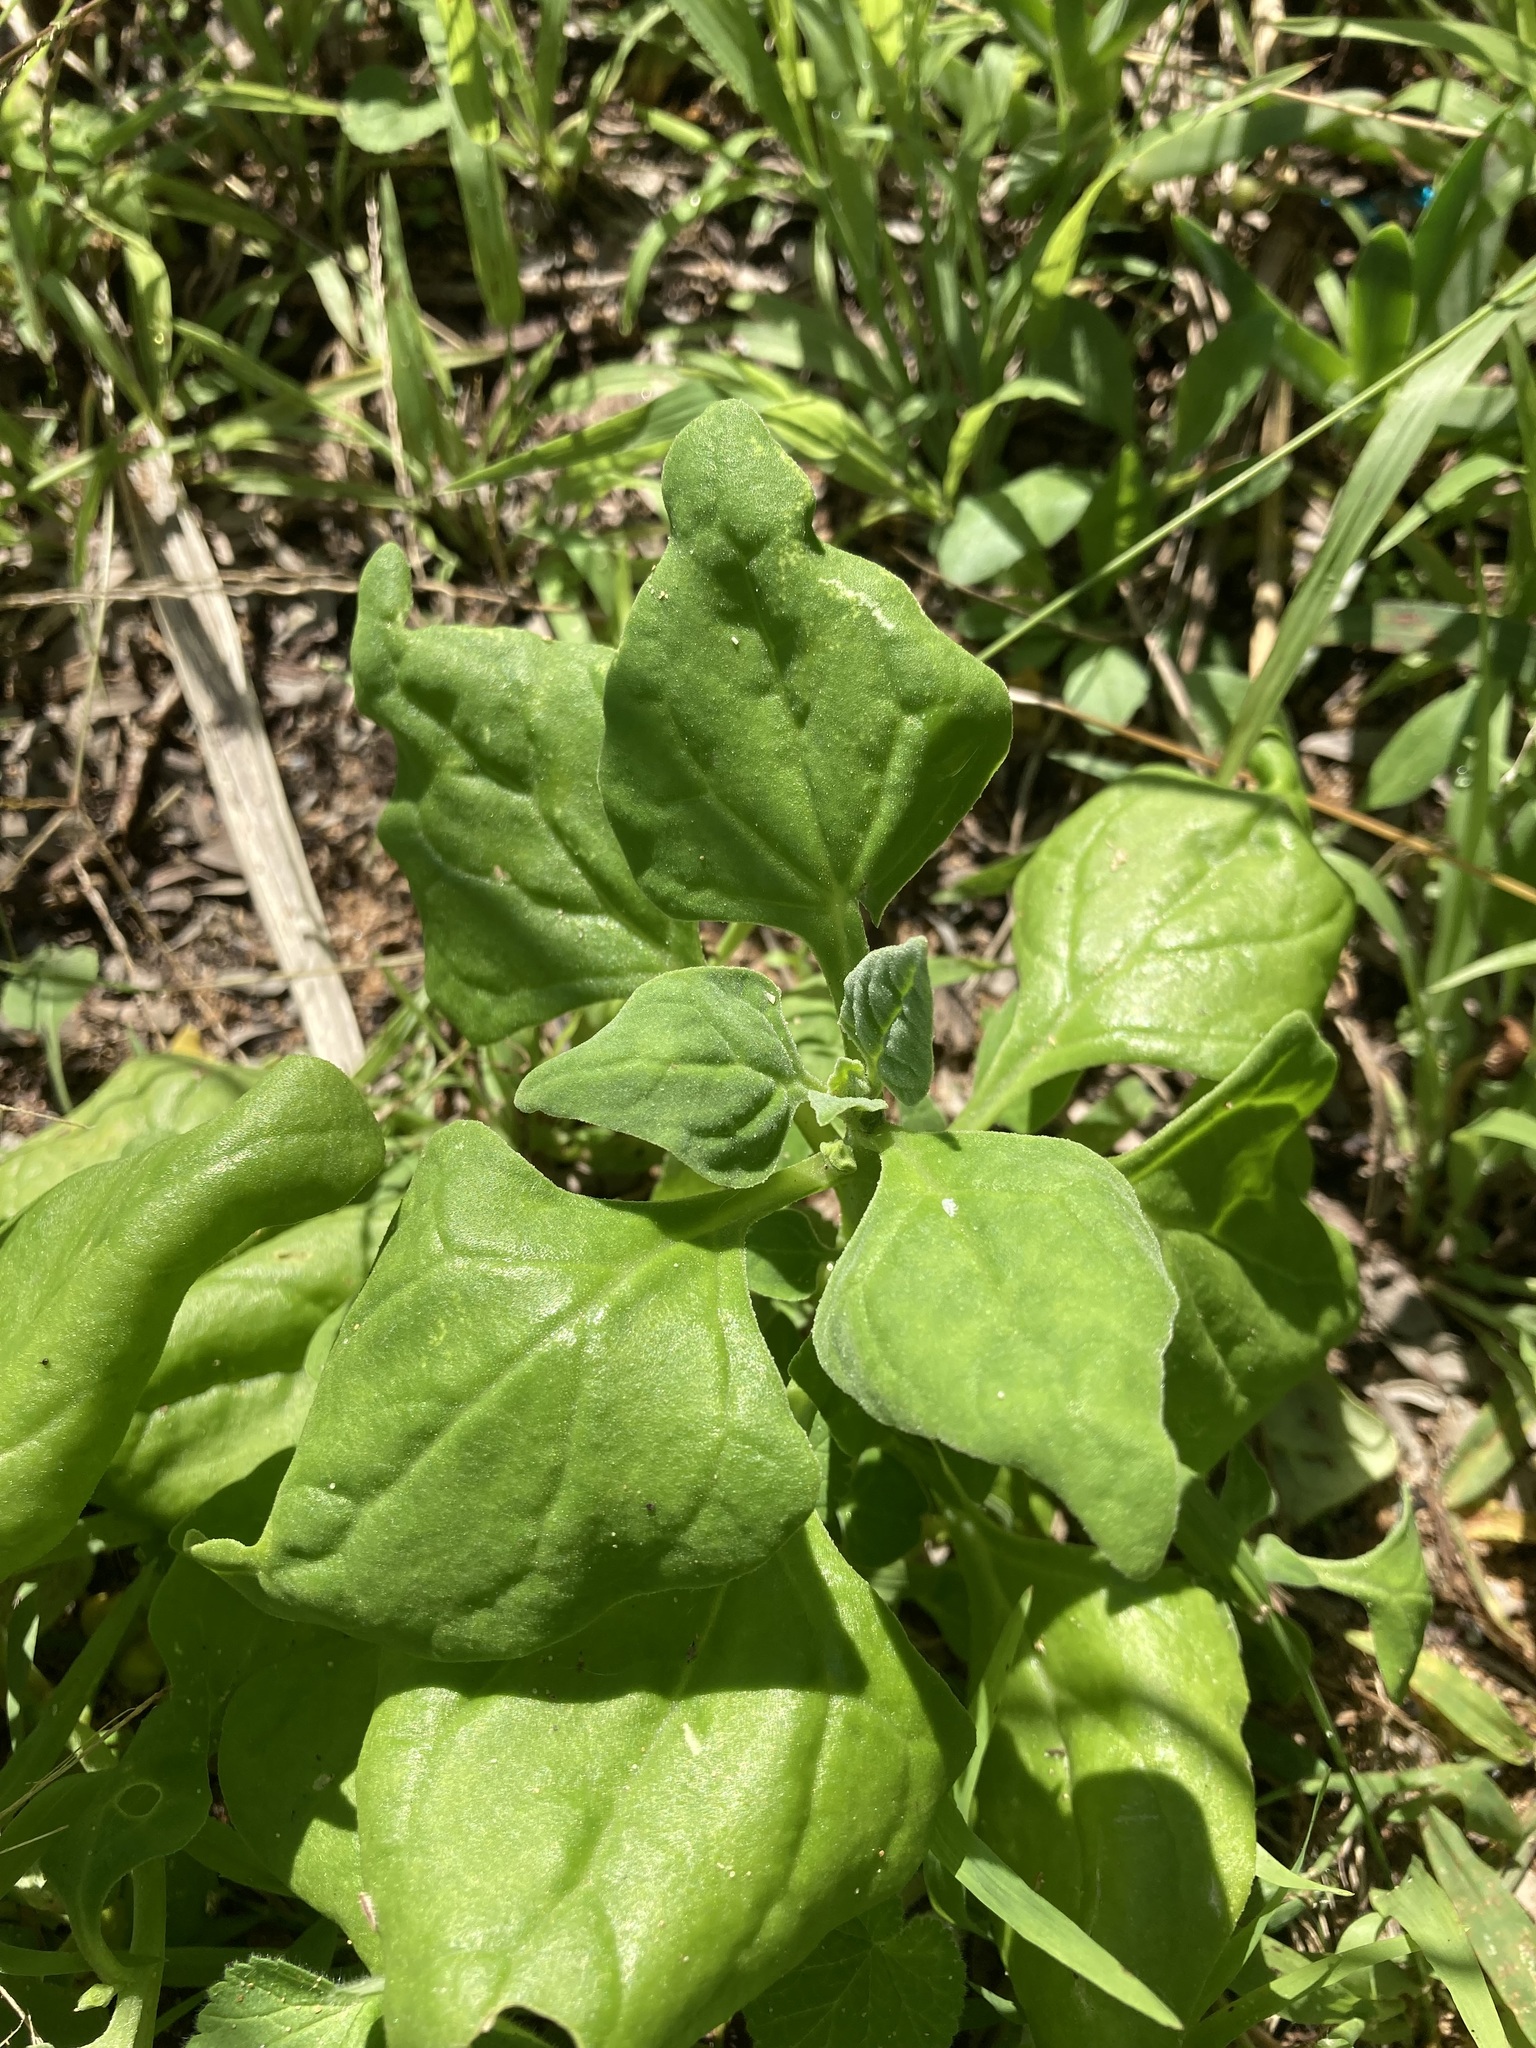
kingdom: Plantae
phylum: Tracheophyta
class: Magnoliopsida
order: Caryophyllales
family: Aizoaceae
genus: Tetragonia
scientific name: Tetragonia tetragonoides
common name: New zealand-spinach
